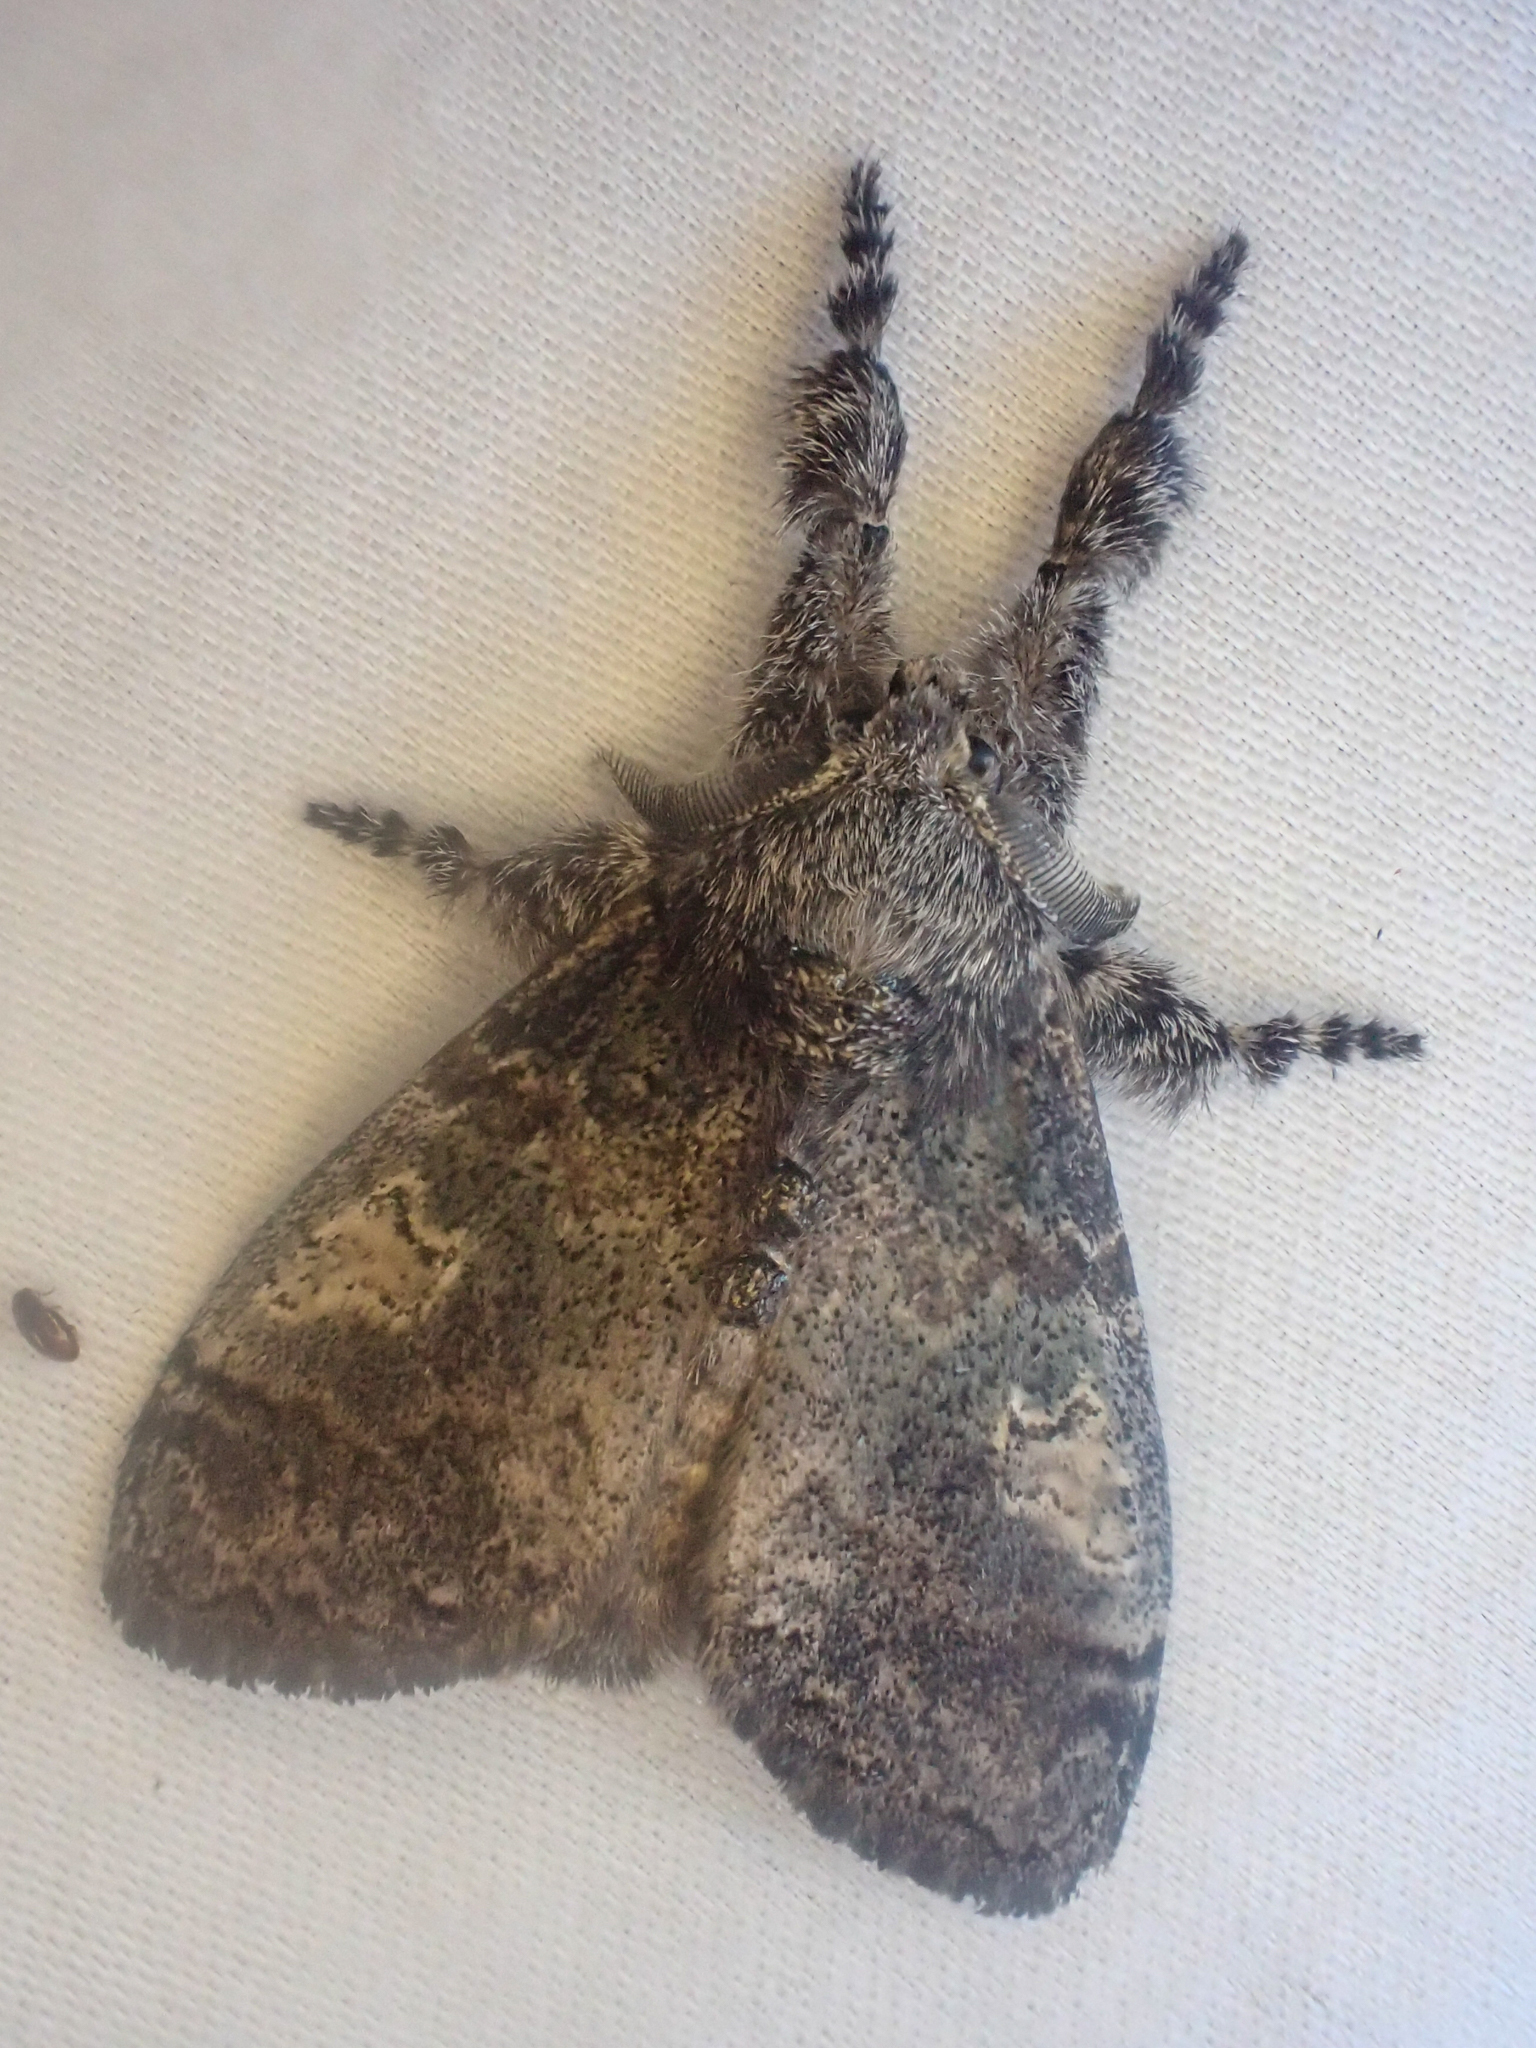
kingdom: Animalia
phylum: Arthropoda
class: Insecta
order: Lepidoptera
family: Erebidae
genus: Dasychira
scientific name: Dasychira vagans
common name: Variable tussock moth
